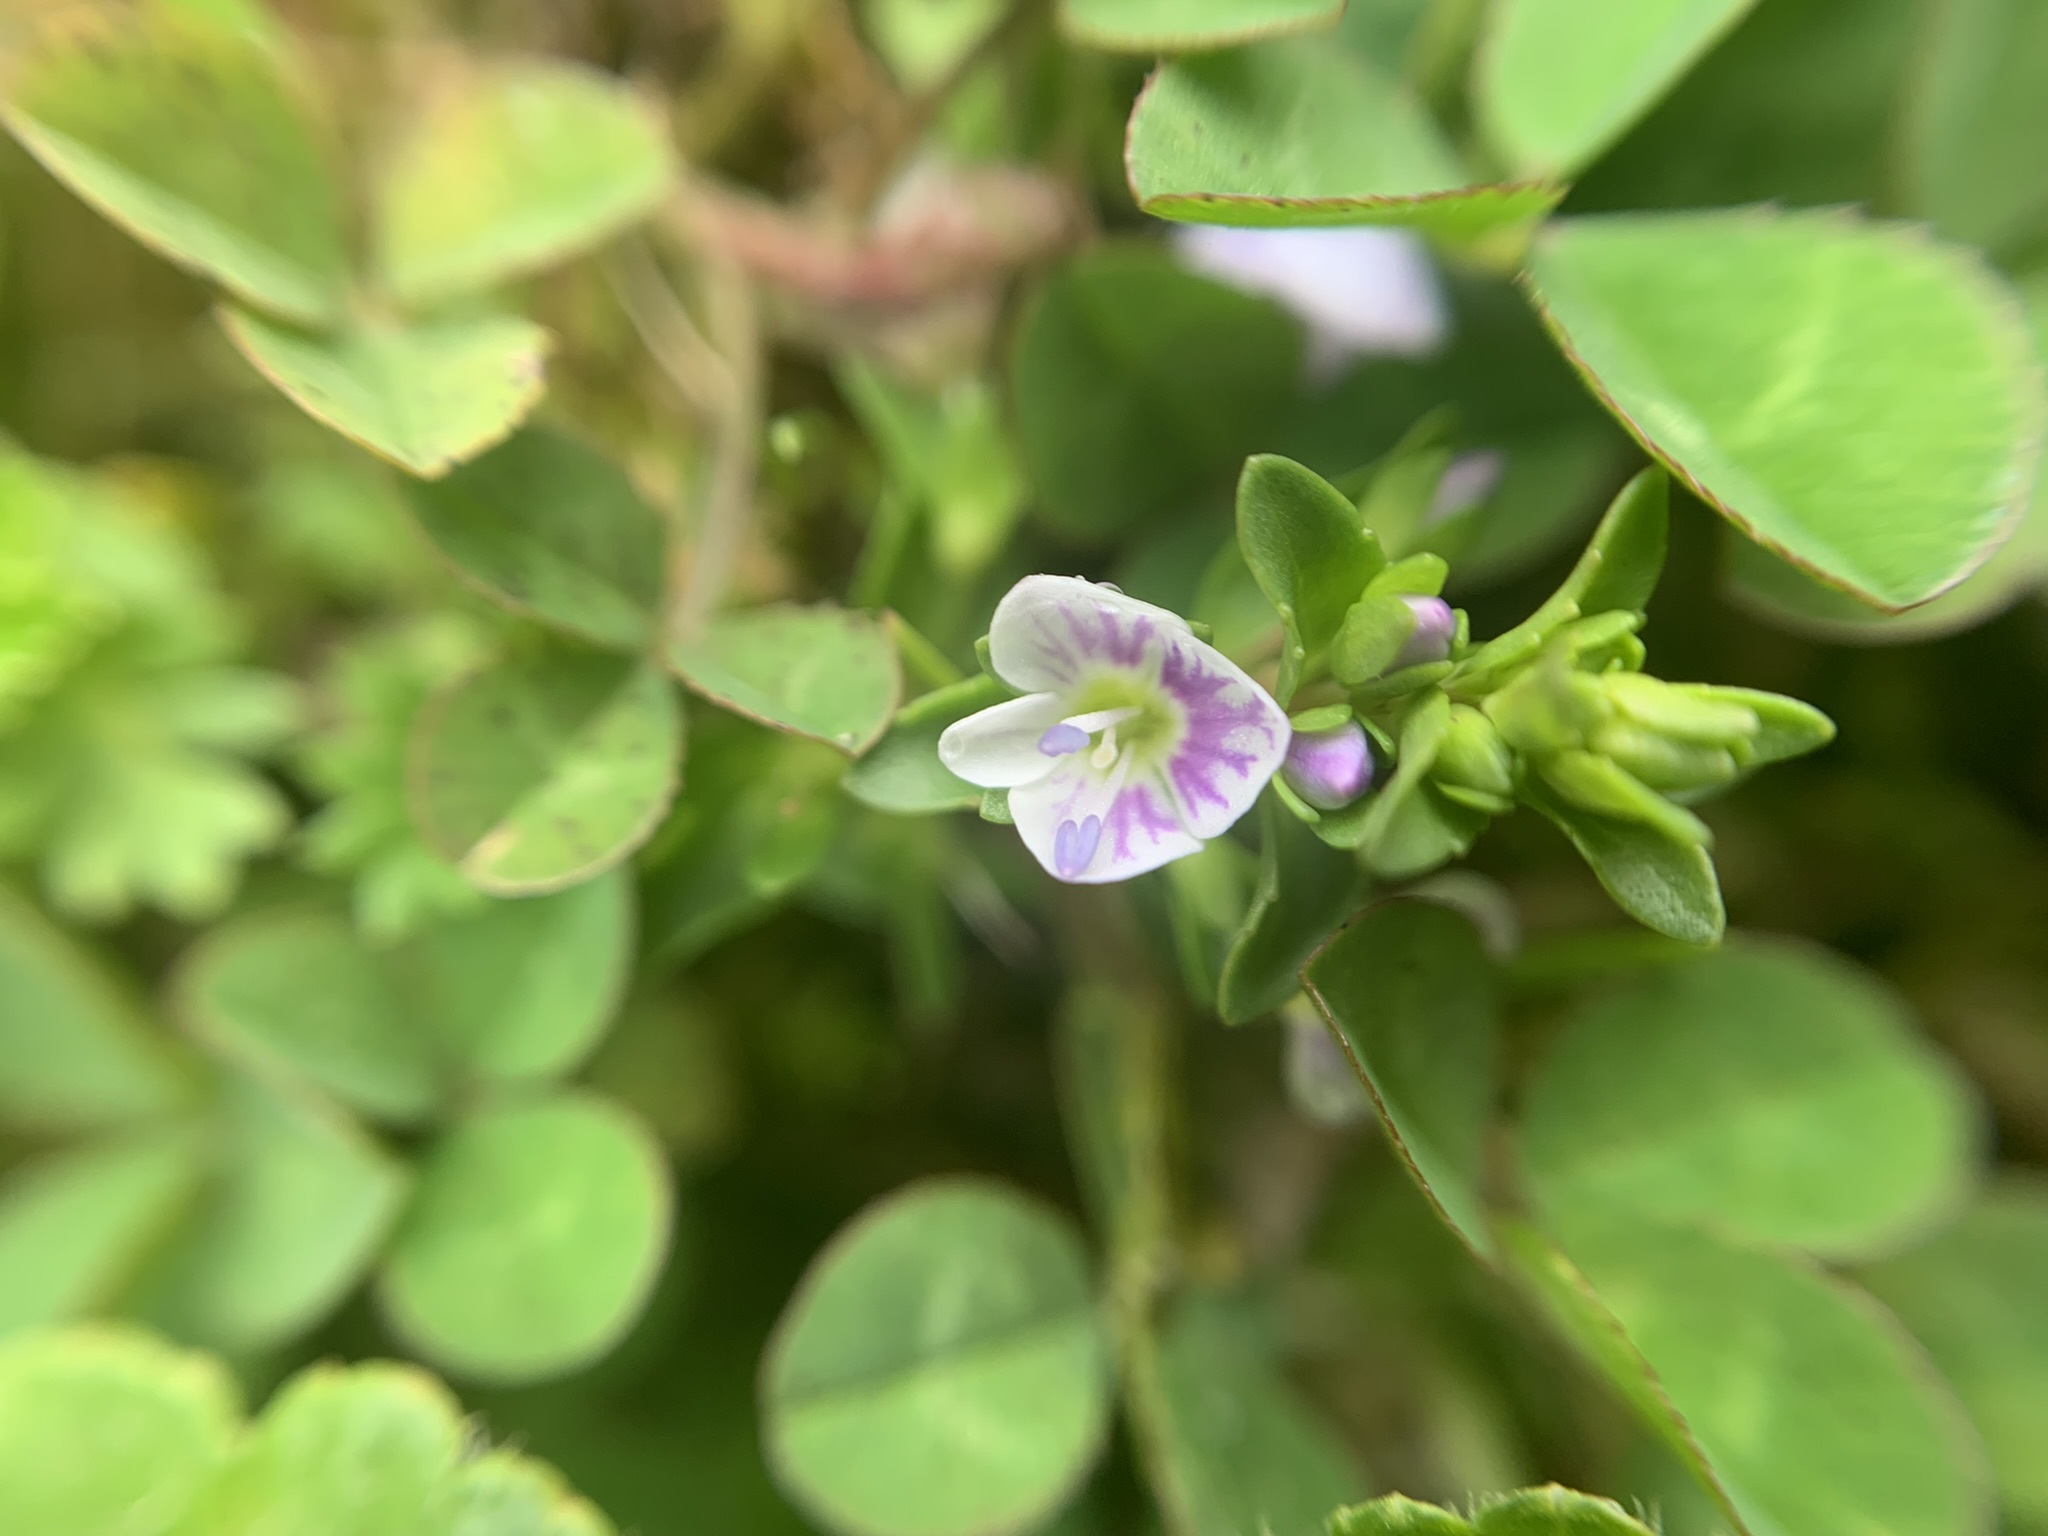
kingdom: Plantae
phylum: Tracheophyta
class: Magnoliopsida
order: Lamiales
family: Plantaginaceae
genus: Veronica
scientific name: Veronica serpyllifolia
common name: Thyme-leaved speedwell
